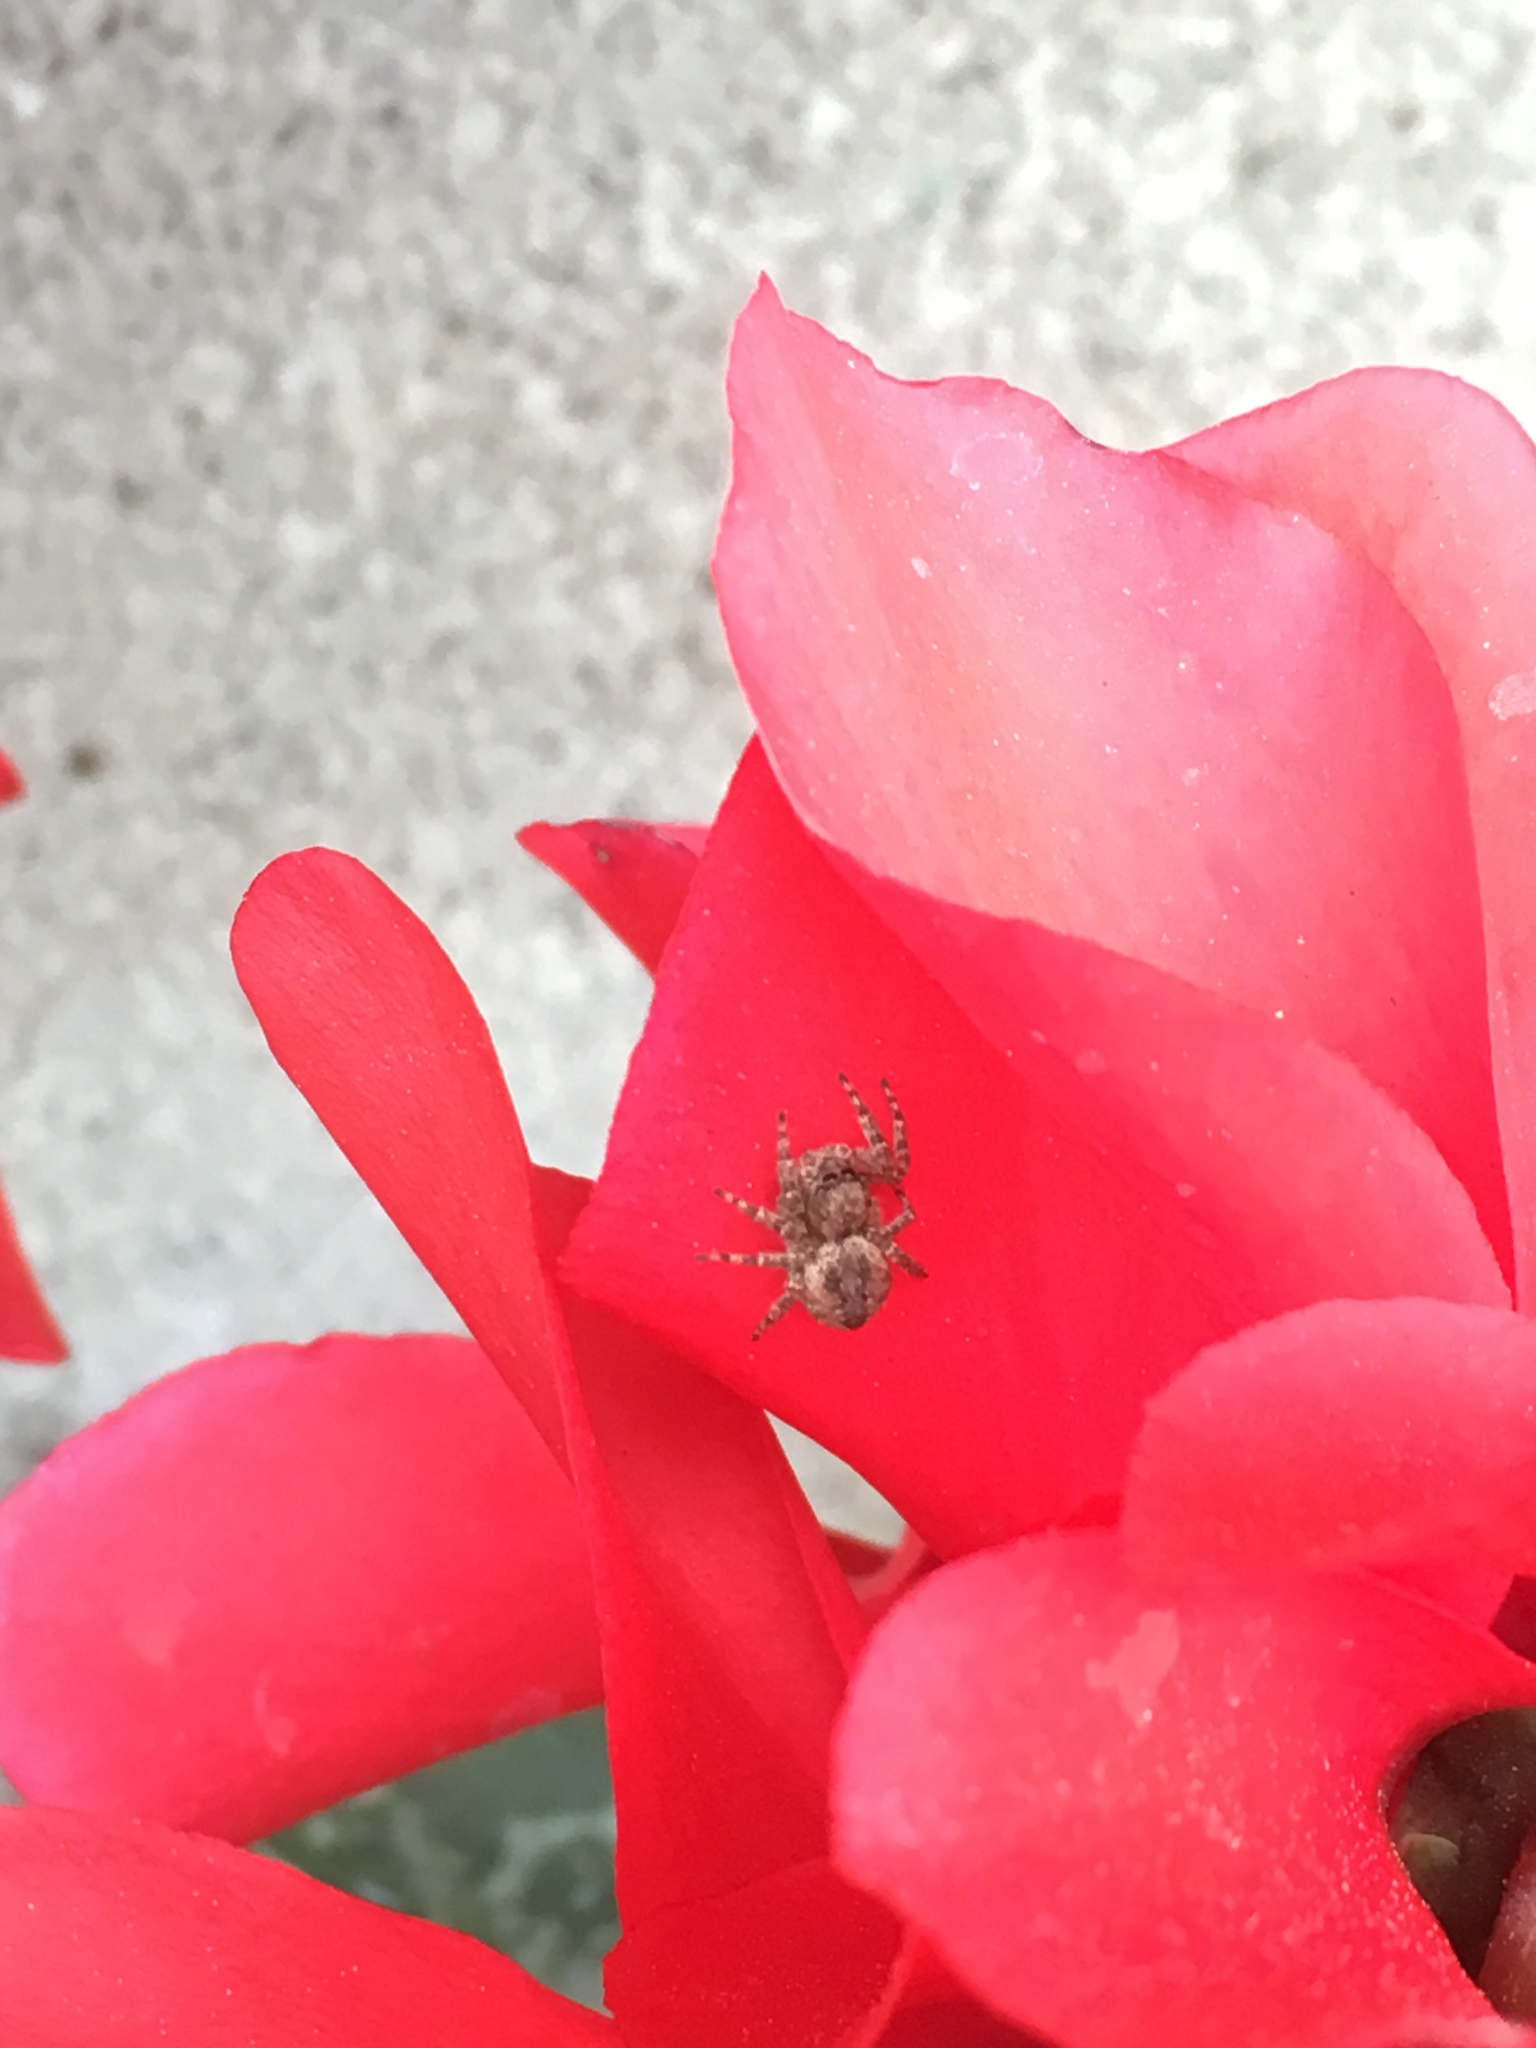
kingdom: Animalia
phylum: Arthropoda
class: Arachnida
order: Araneae
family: Salticidae
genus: Mexigonus
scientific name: Mexigonus minutus
